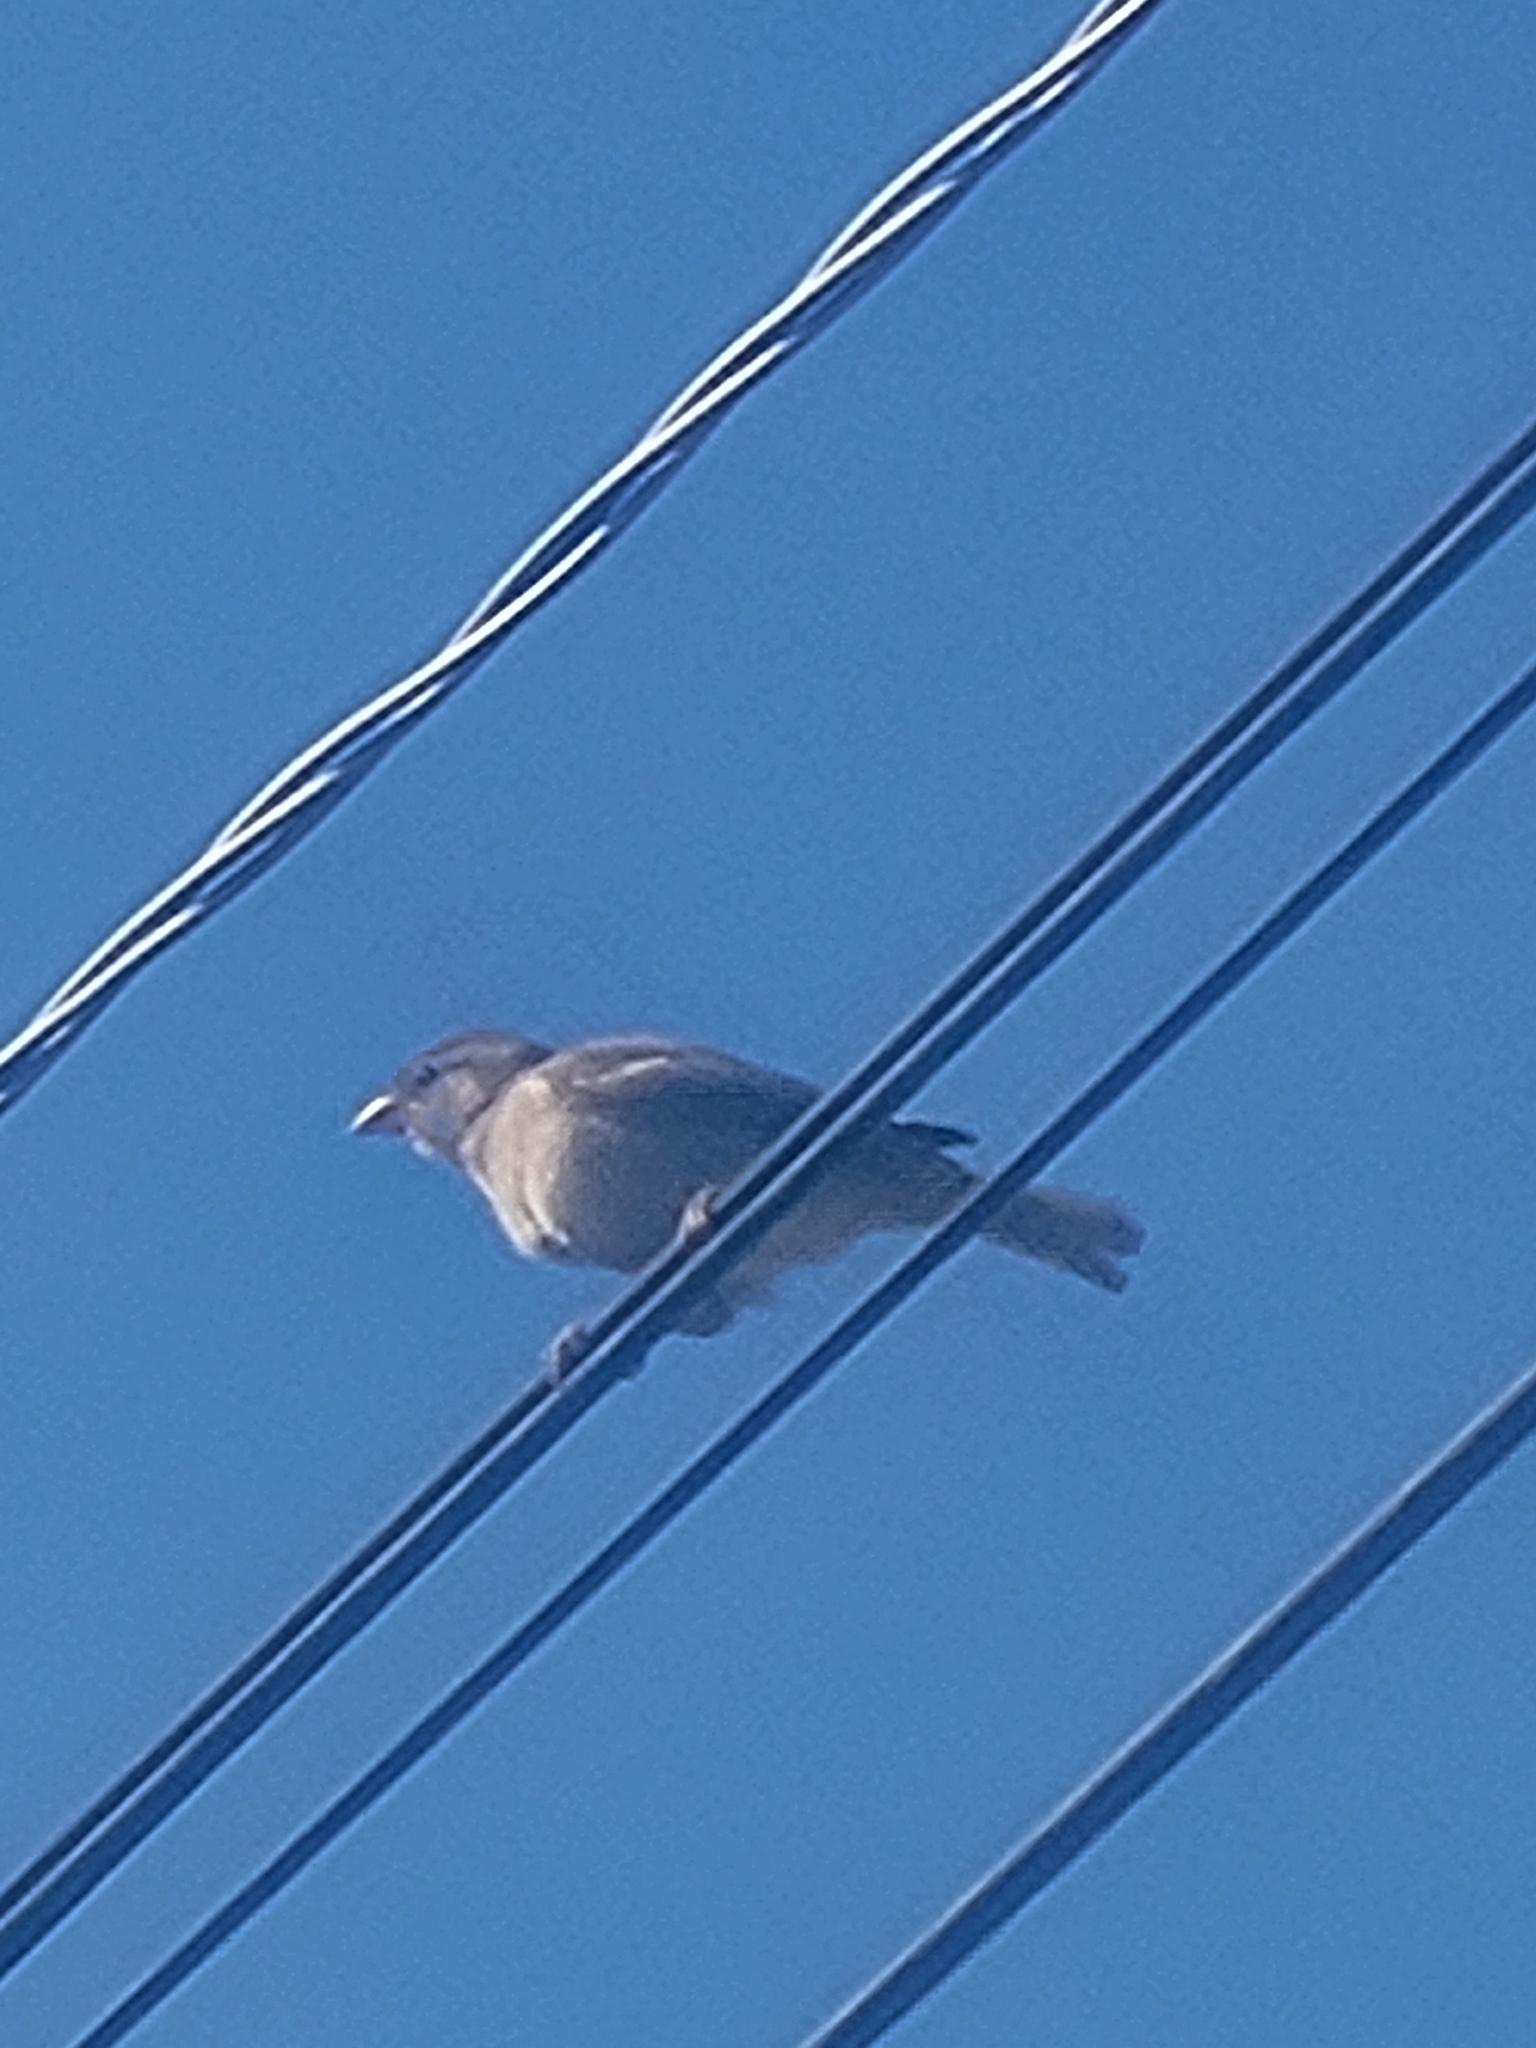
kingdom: Animalia
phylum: Chordata
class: Aves
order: Passeriformes
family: Passeridae
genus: Passer
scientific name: Passer domesticus
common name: House sparrow
